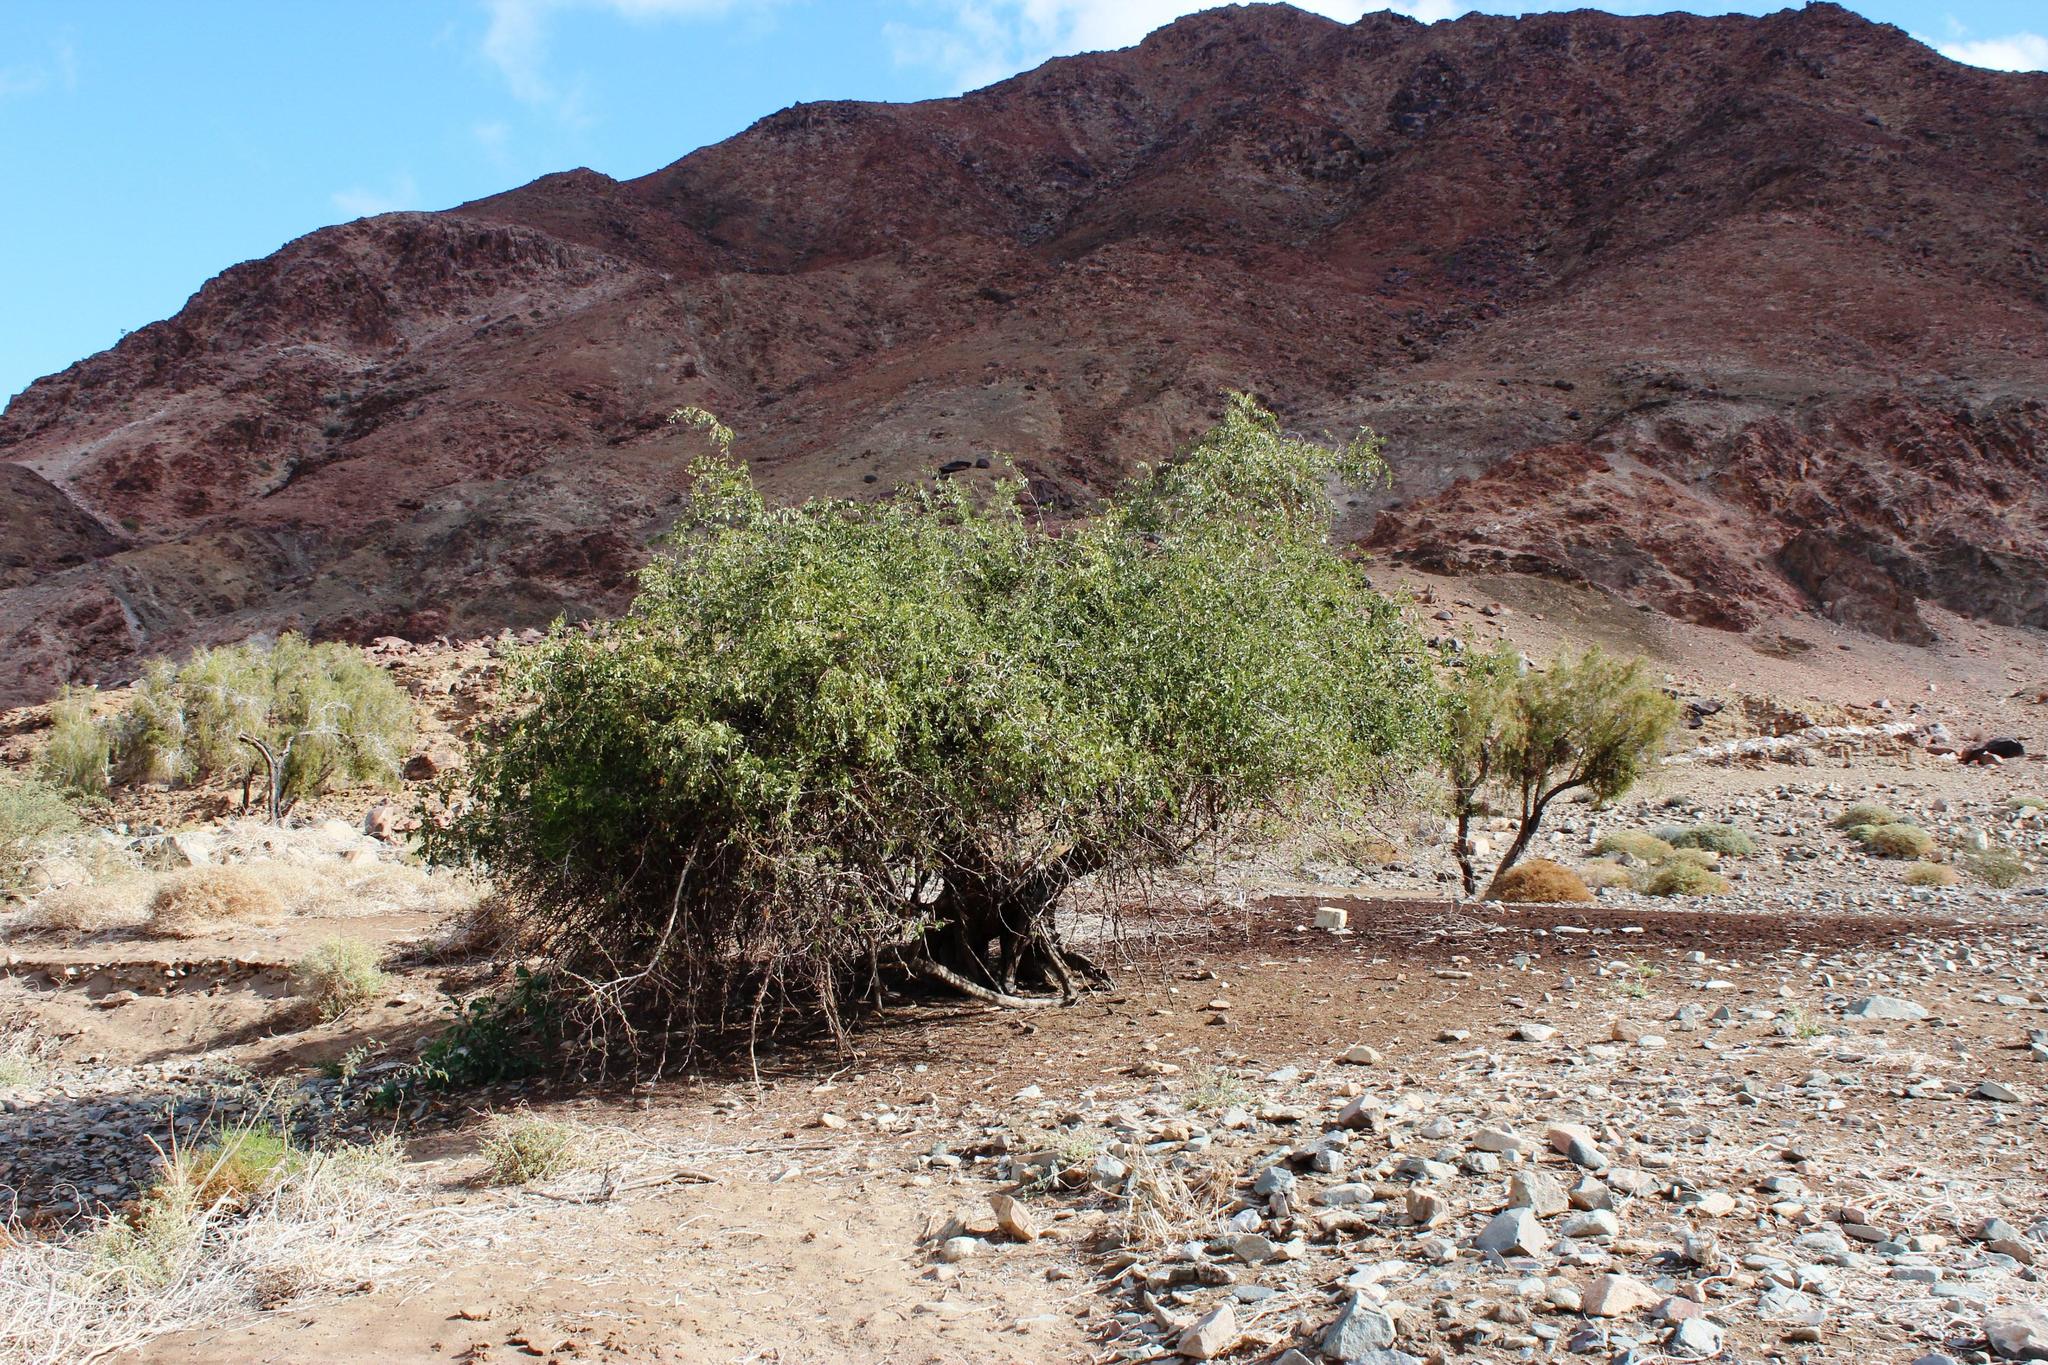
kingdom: Plantae
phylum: Tracheophyta
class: Magnoliopsida
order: Rosales
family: Rhamnaceae
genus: Ziziphus
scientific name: Ziziphus mucronata
